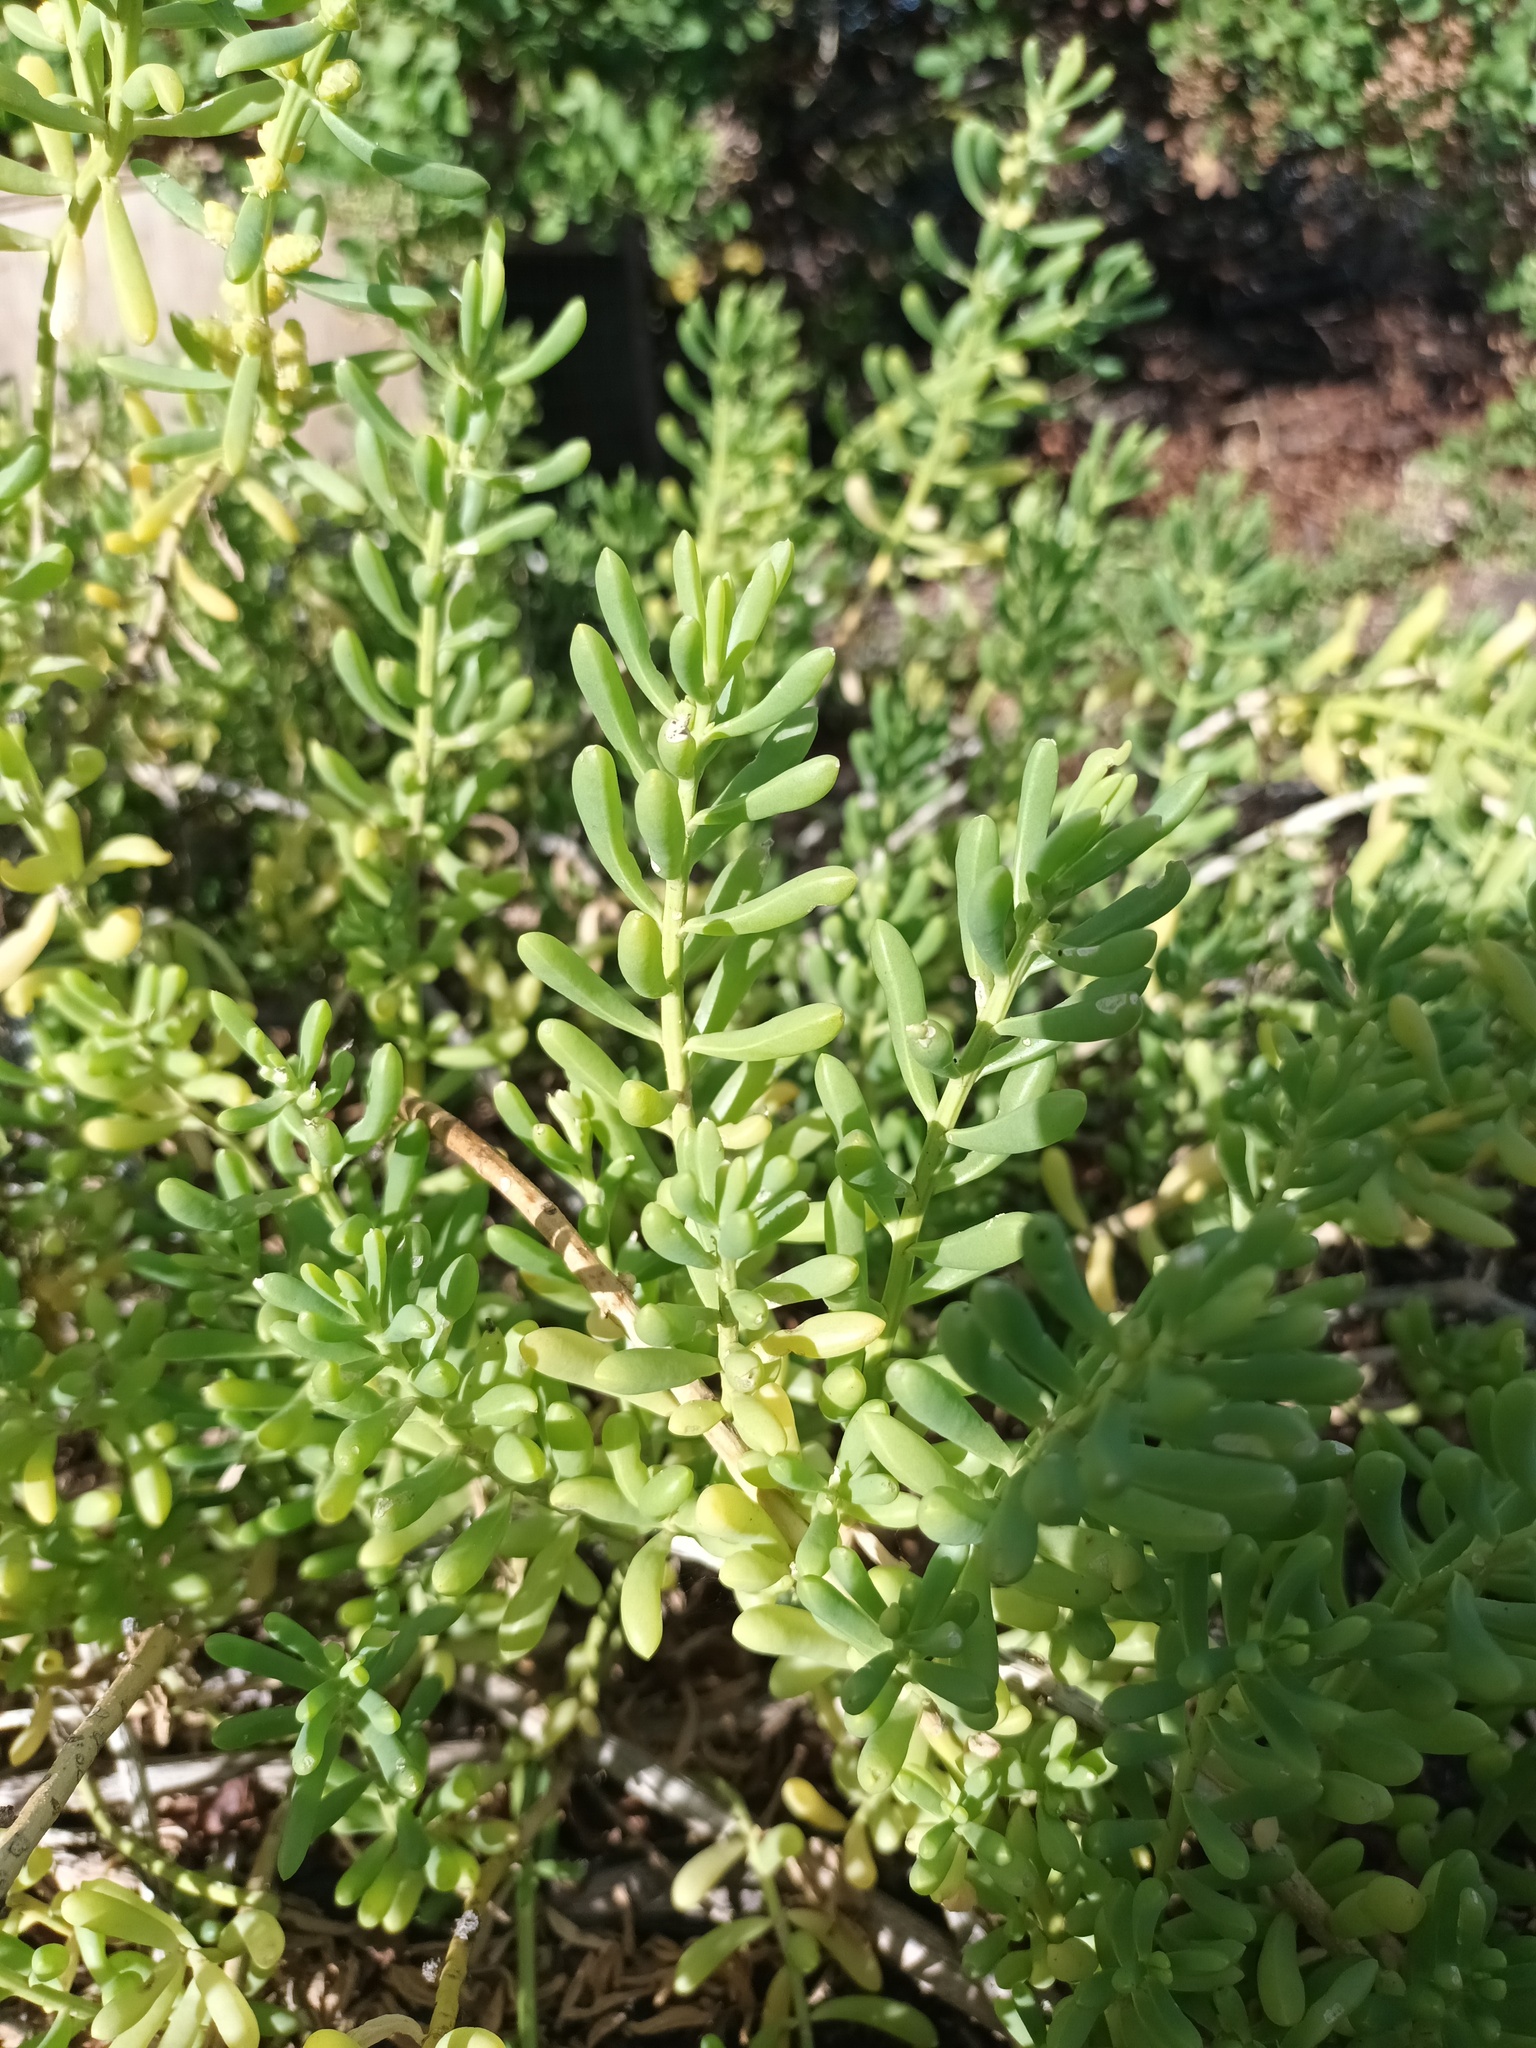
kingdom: Plantae
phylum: Tracheophyta
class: Magnoliopsida
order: Brassicales
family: Bataceae
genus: Batis
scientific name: Batis maritima
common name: Turtleweed
